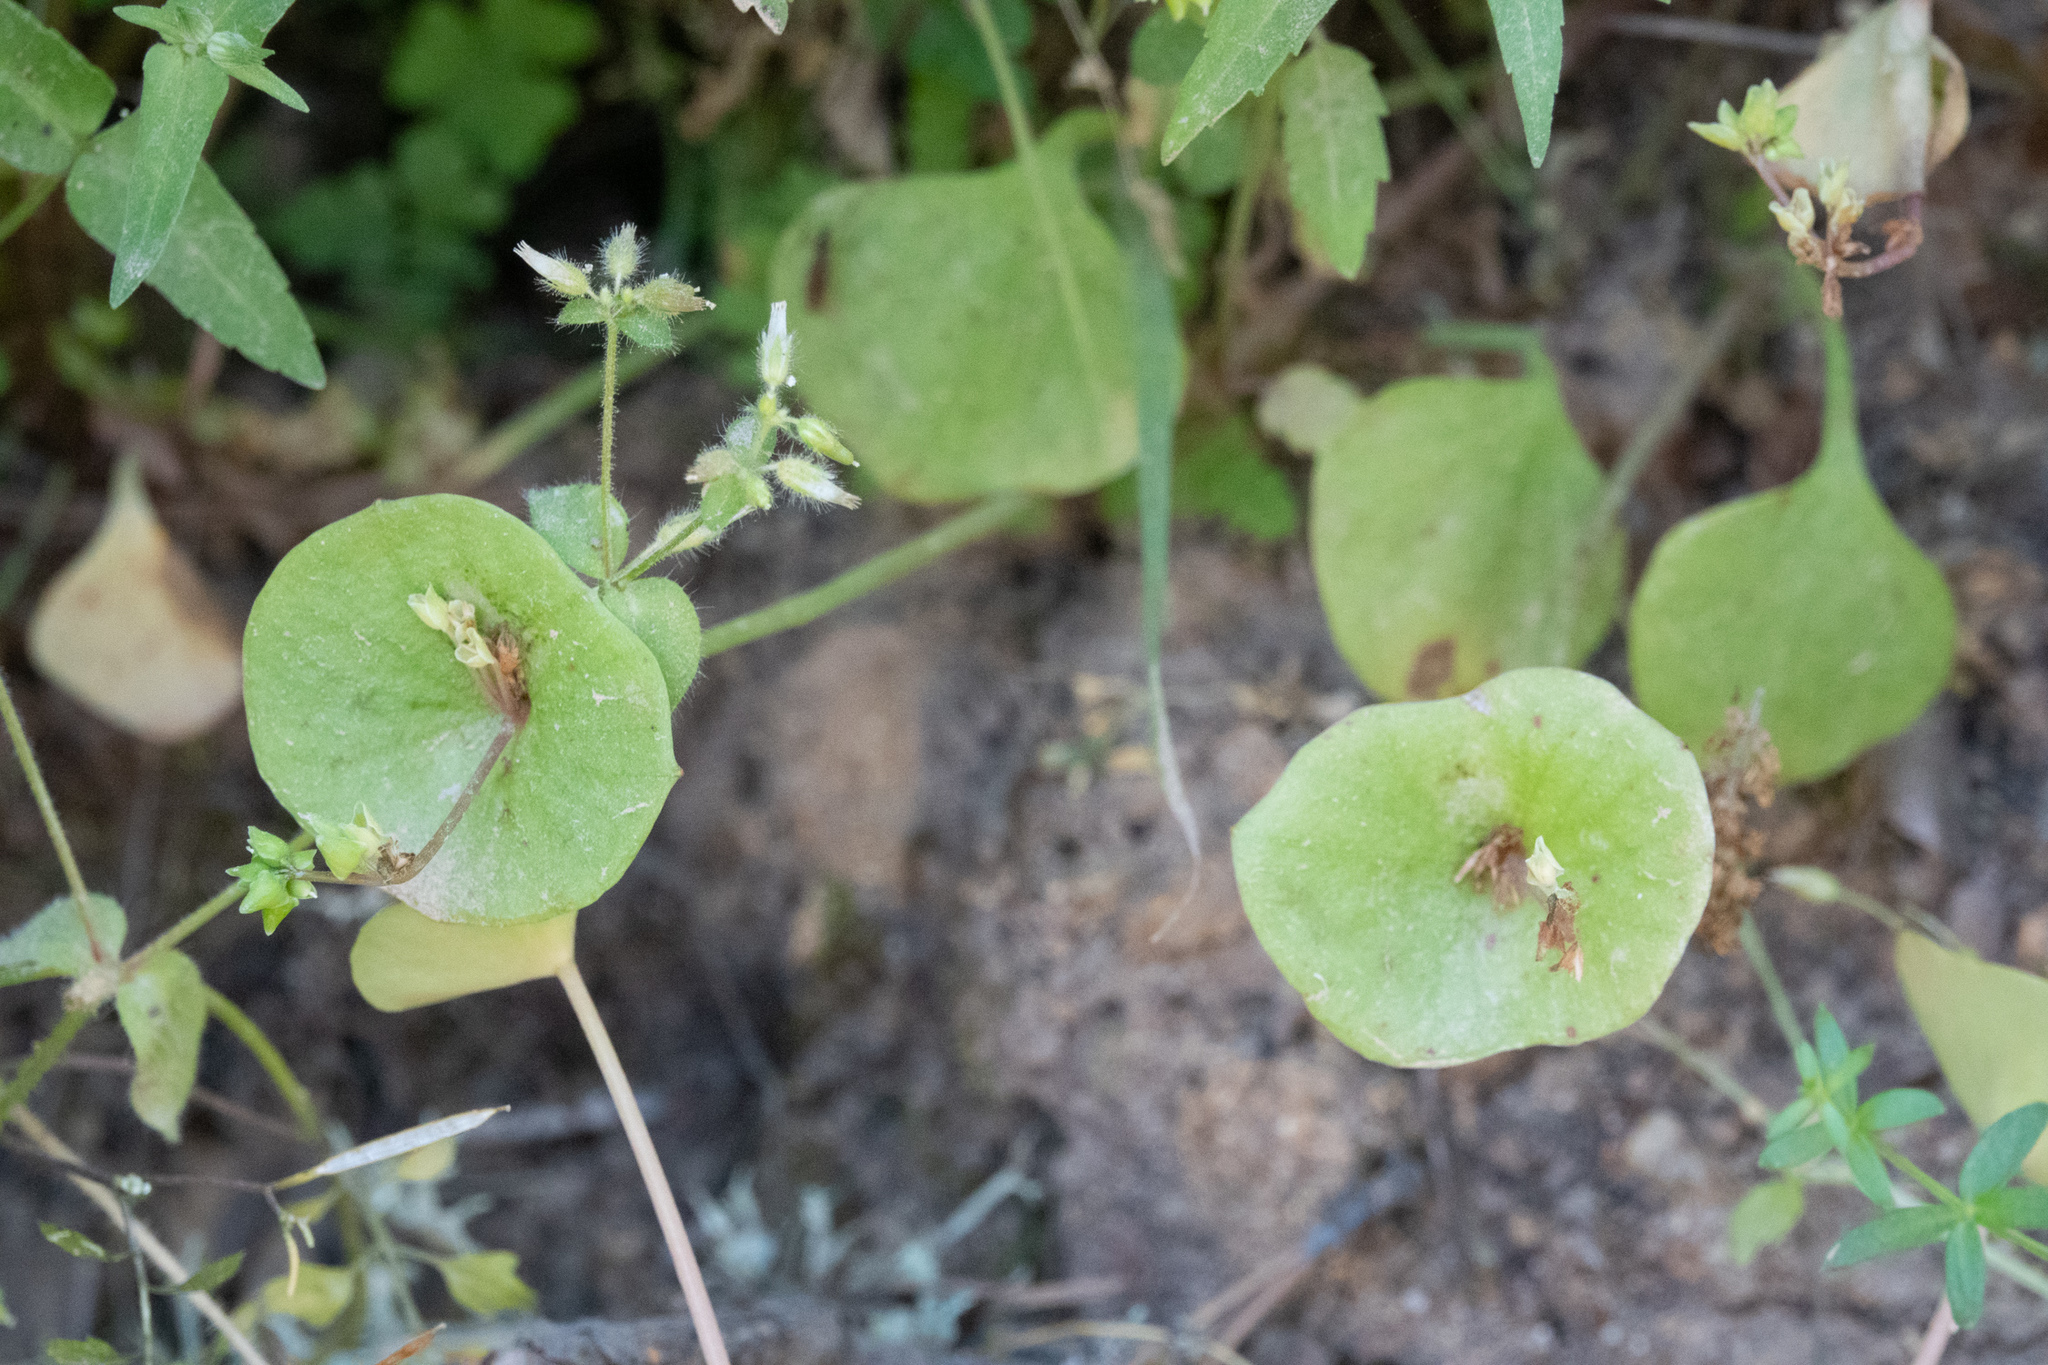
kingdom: Plantae
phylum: Tracheophyta
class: Magnoliopsida
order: Caryophyllales
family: Montiaceae
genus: Claytonia
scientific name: Claytonia perfoliata
